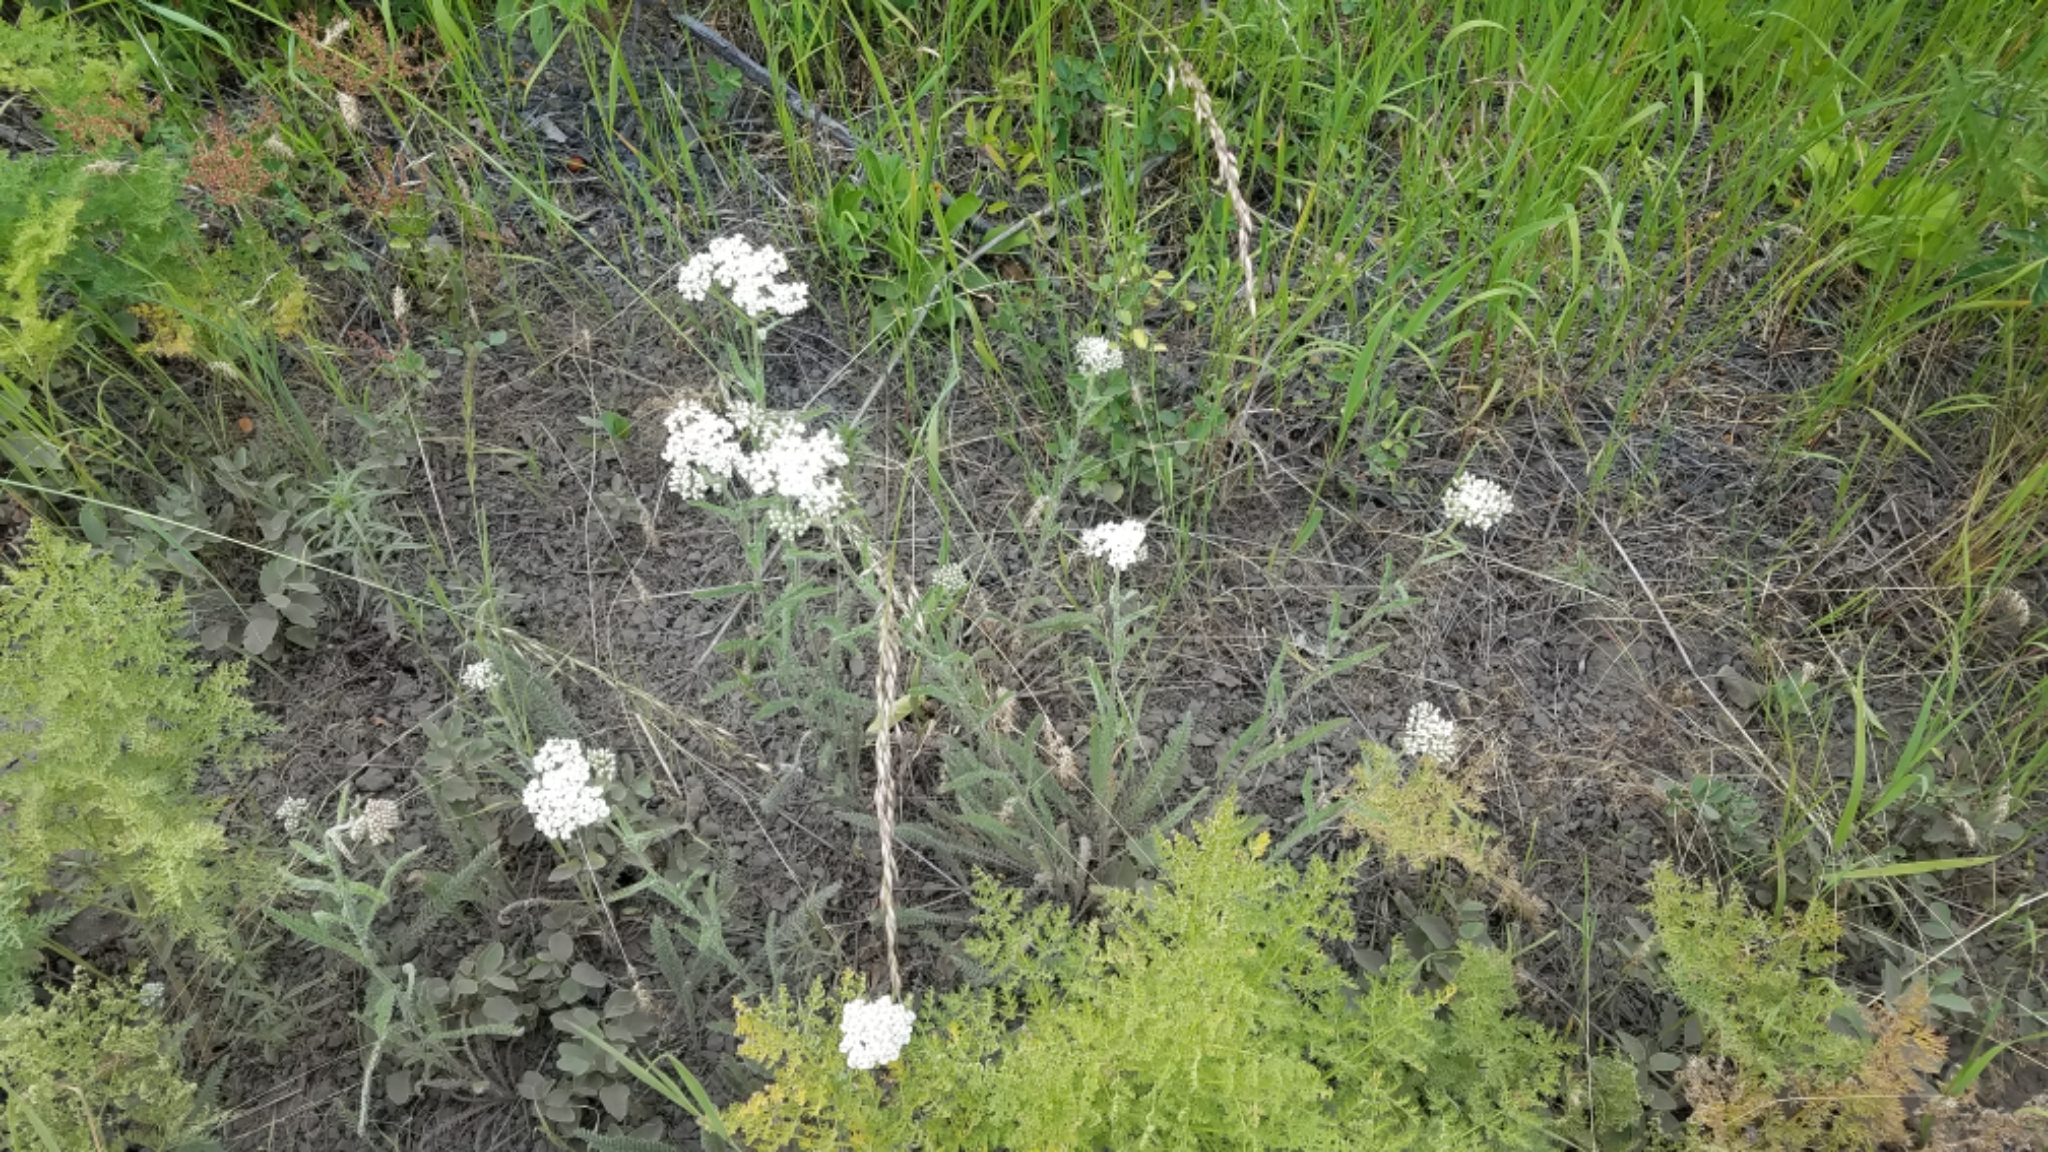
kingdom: Plantae
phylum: Tracheophyta
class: Magnoliopsida
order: Asterales
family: Asteraceae
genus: Achillea
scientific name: Achillea millefolium
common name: Yarrow
